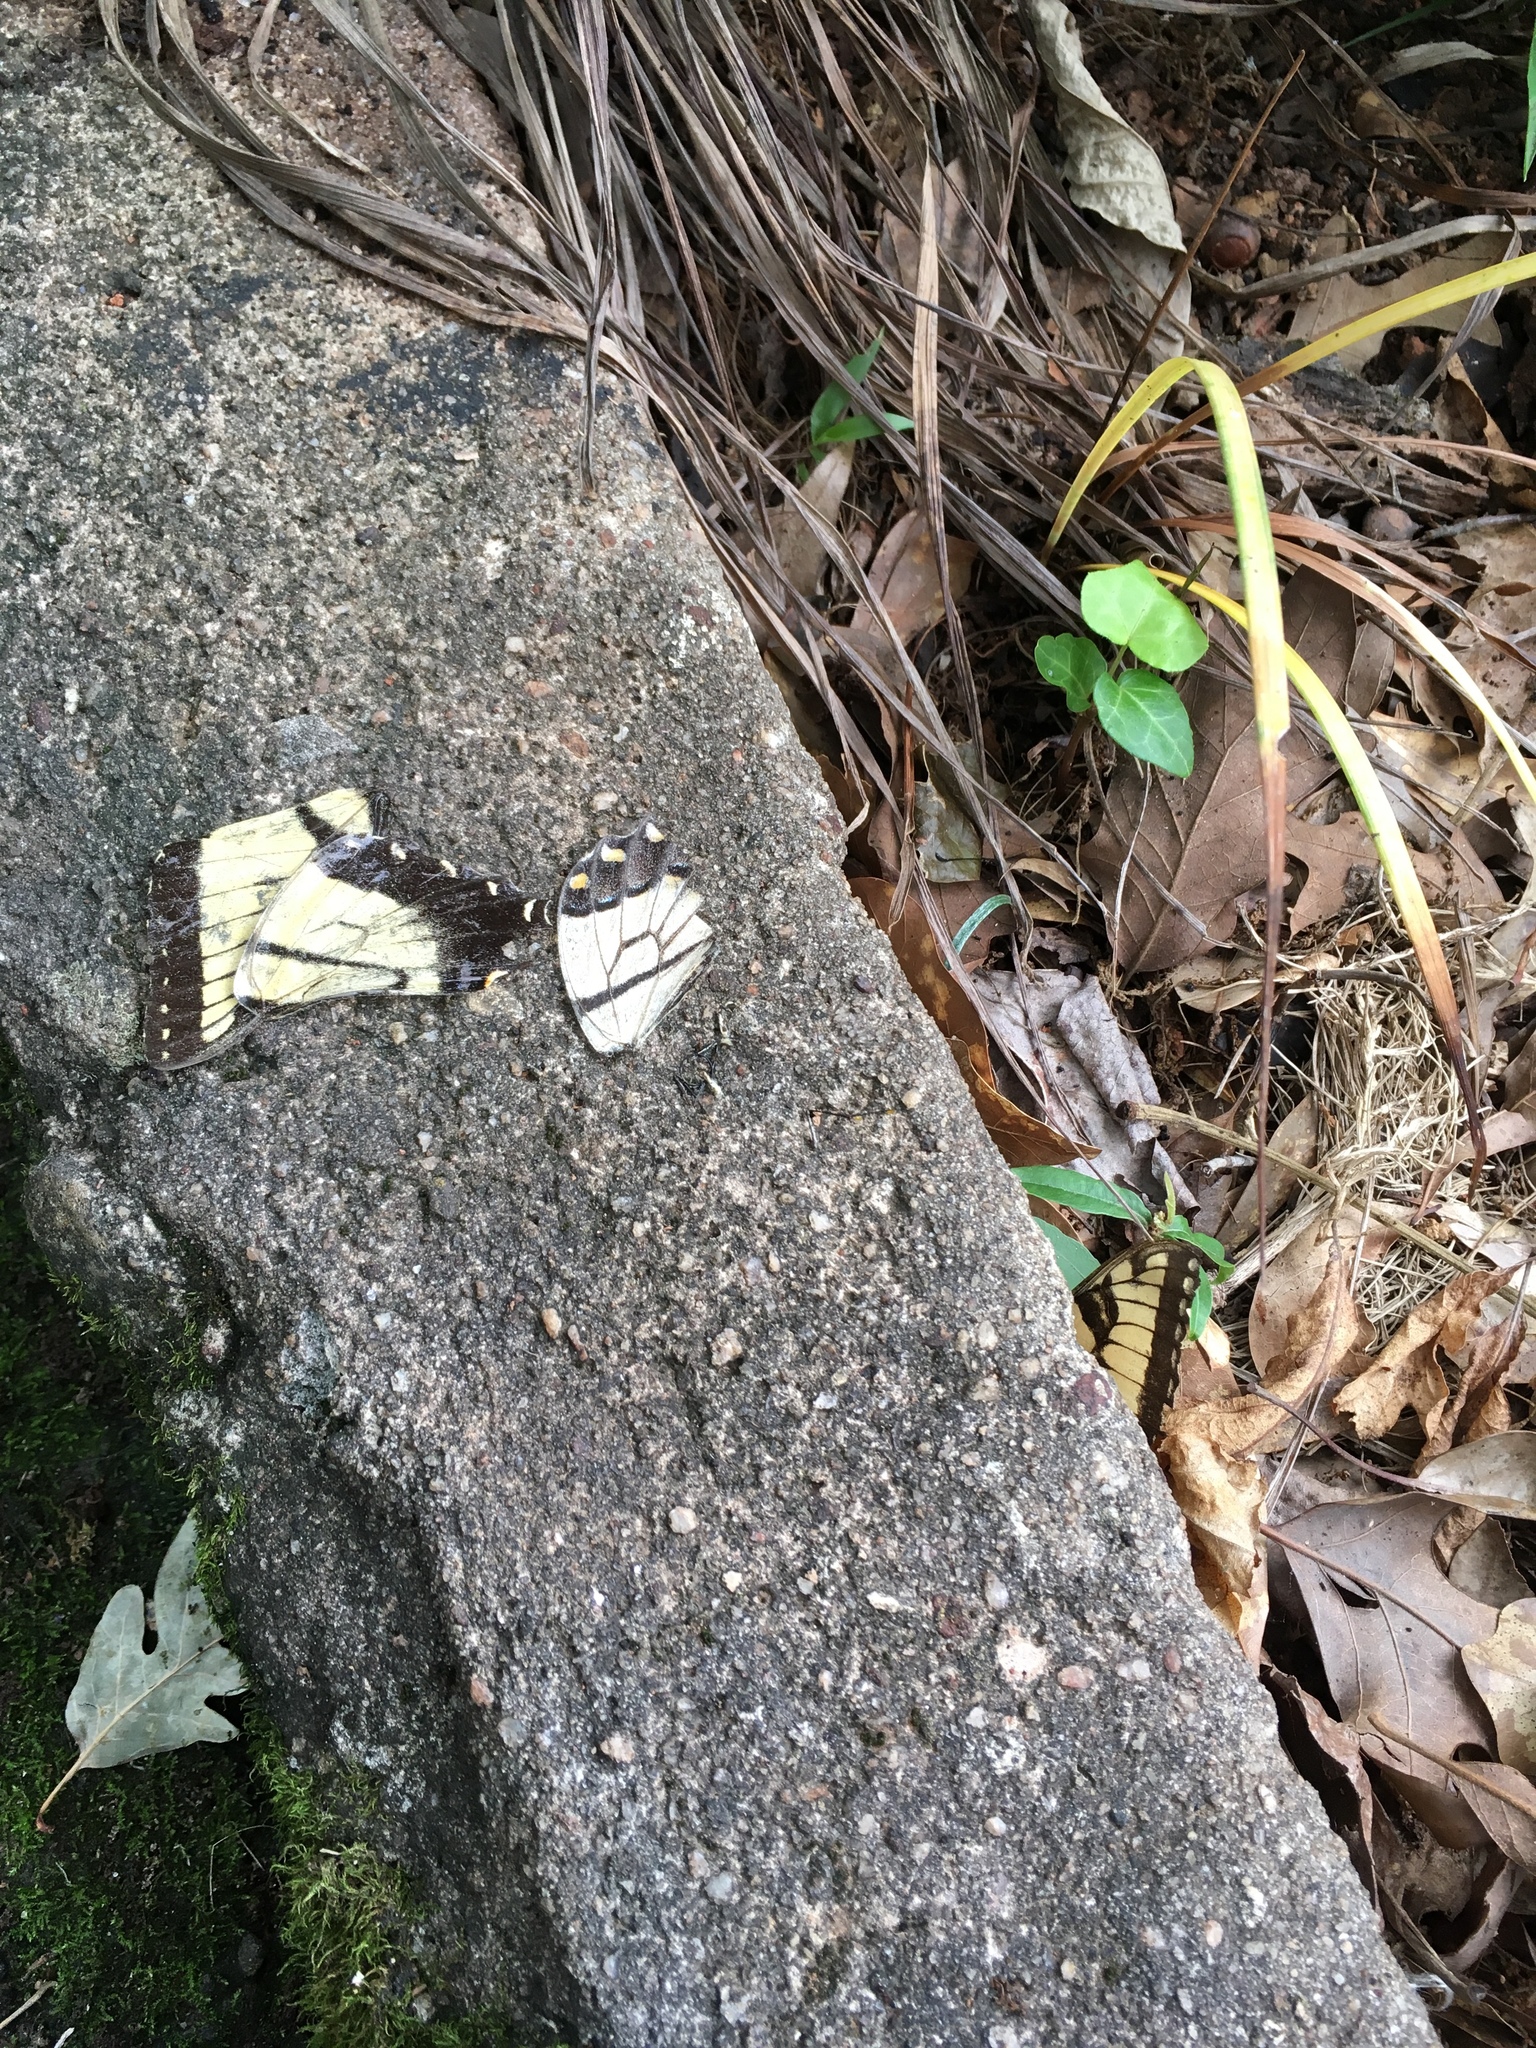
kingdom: Animalia
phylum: Arthropoda
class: Insecta
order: Lepidoptera
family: Papilionidae
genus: Papilio
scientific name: Papilio glaucus
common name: Tiger swallowtail
